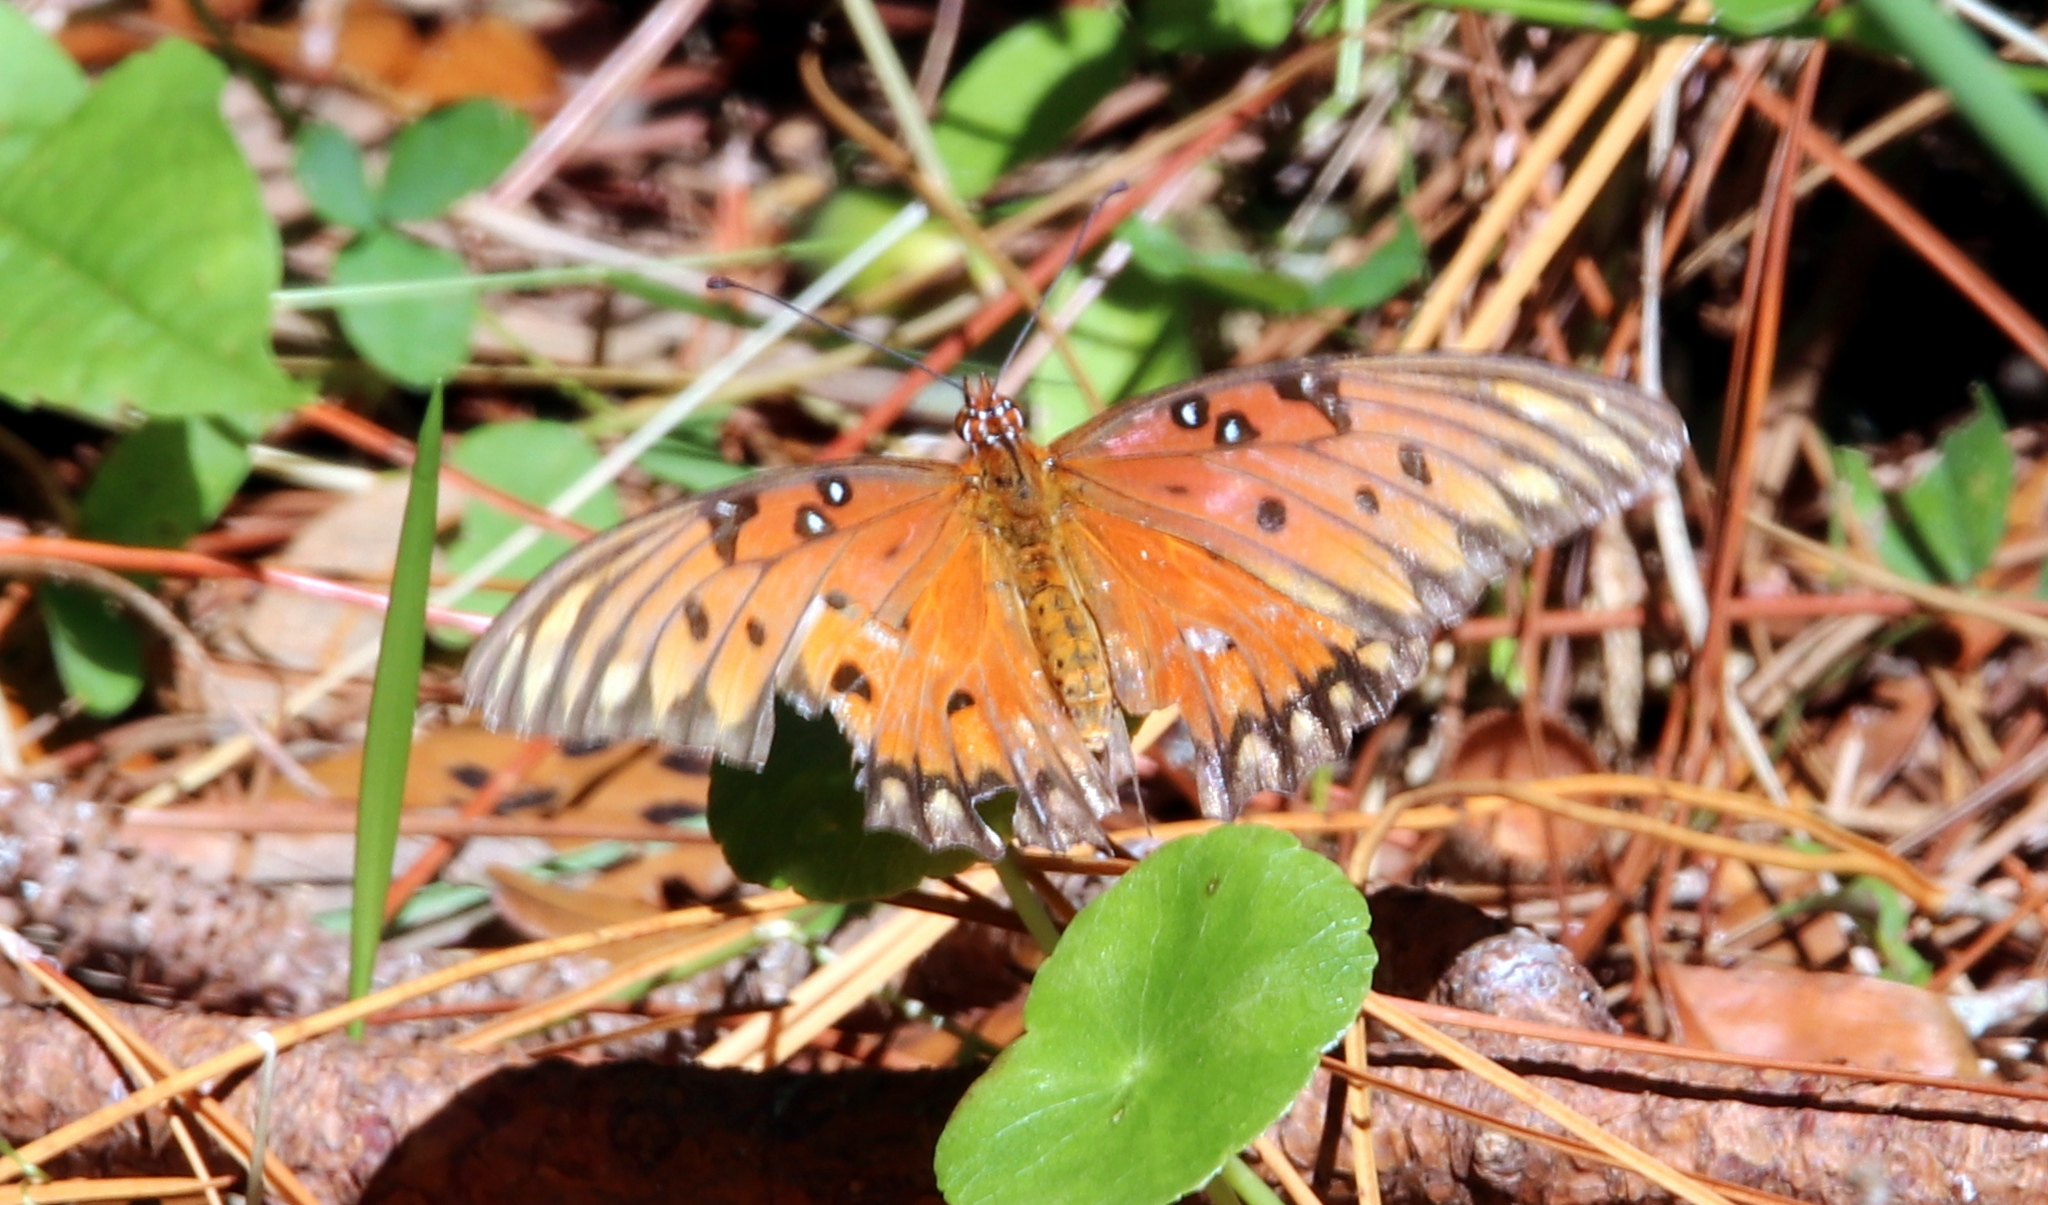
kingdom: Animalia
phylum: Arthropoda
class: Insecta
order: Lepidoptera
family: Nymphalidae
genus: Dione
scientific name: Dione vanillae
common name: Gulf fritillary
